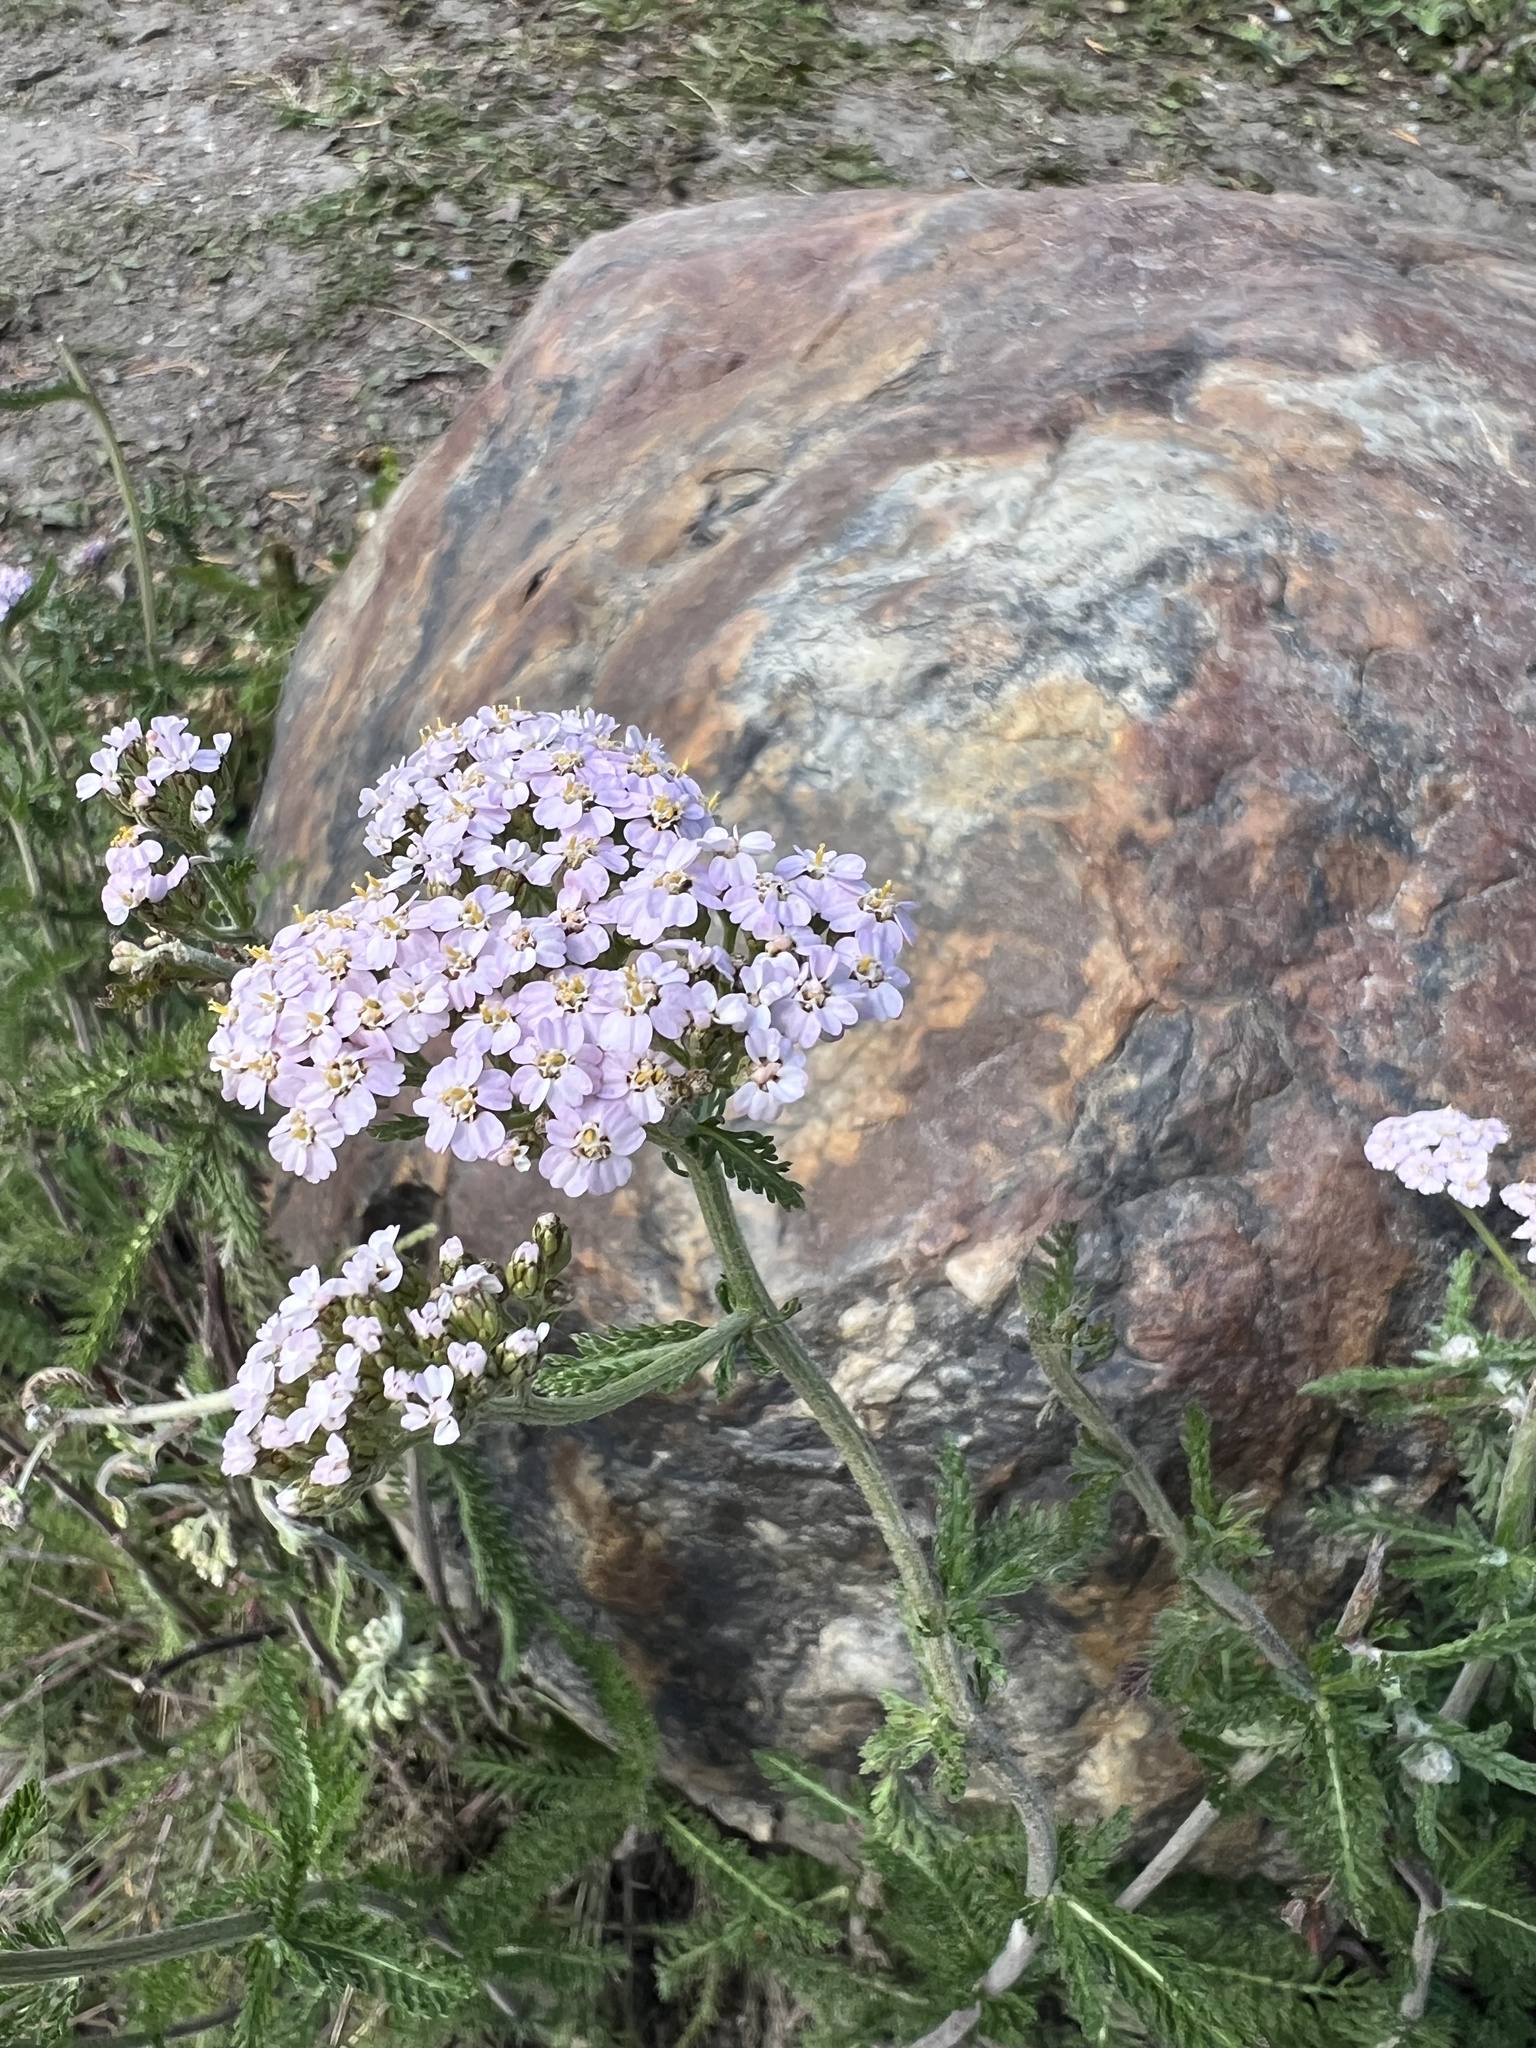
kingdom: Plantae
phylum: Tracheophyta
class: Magnoliopsida
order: Asterales
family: Asteraceae
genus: Achillea
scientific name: Achillea millefolium
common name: Yarrow
